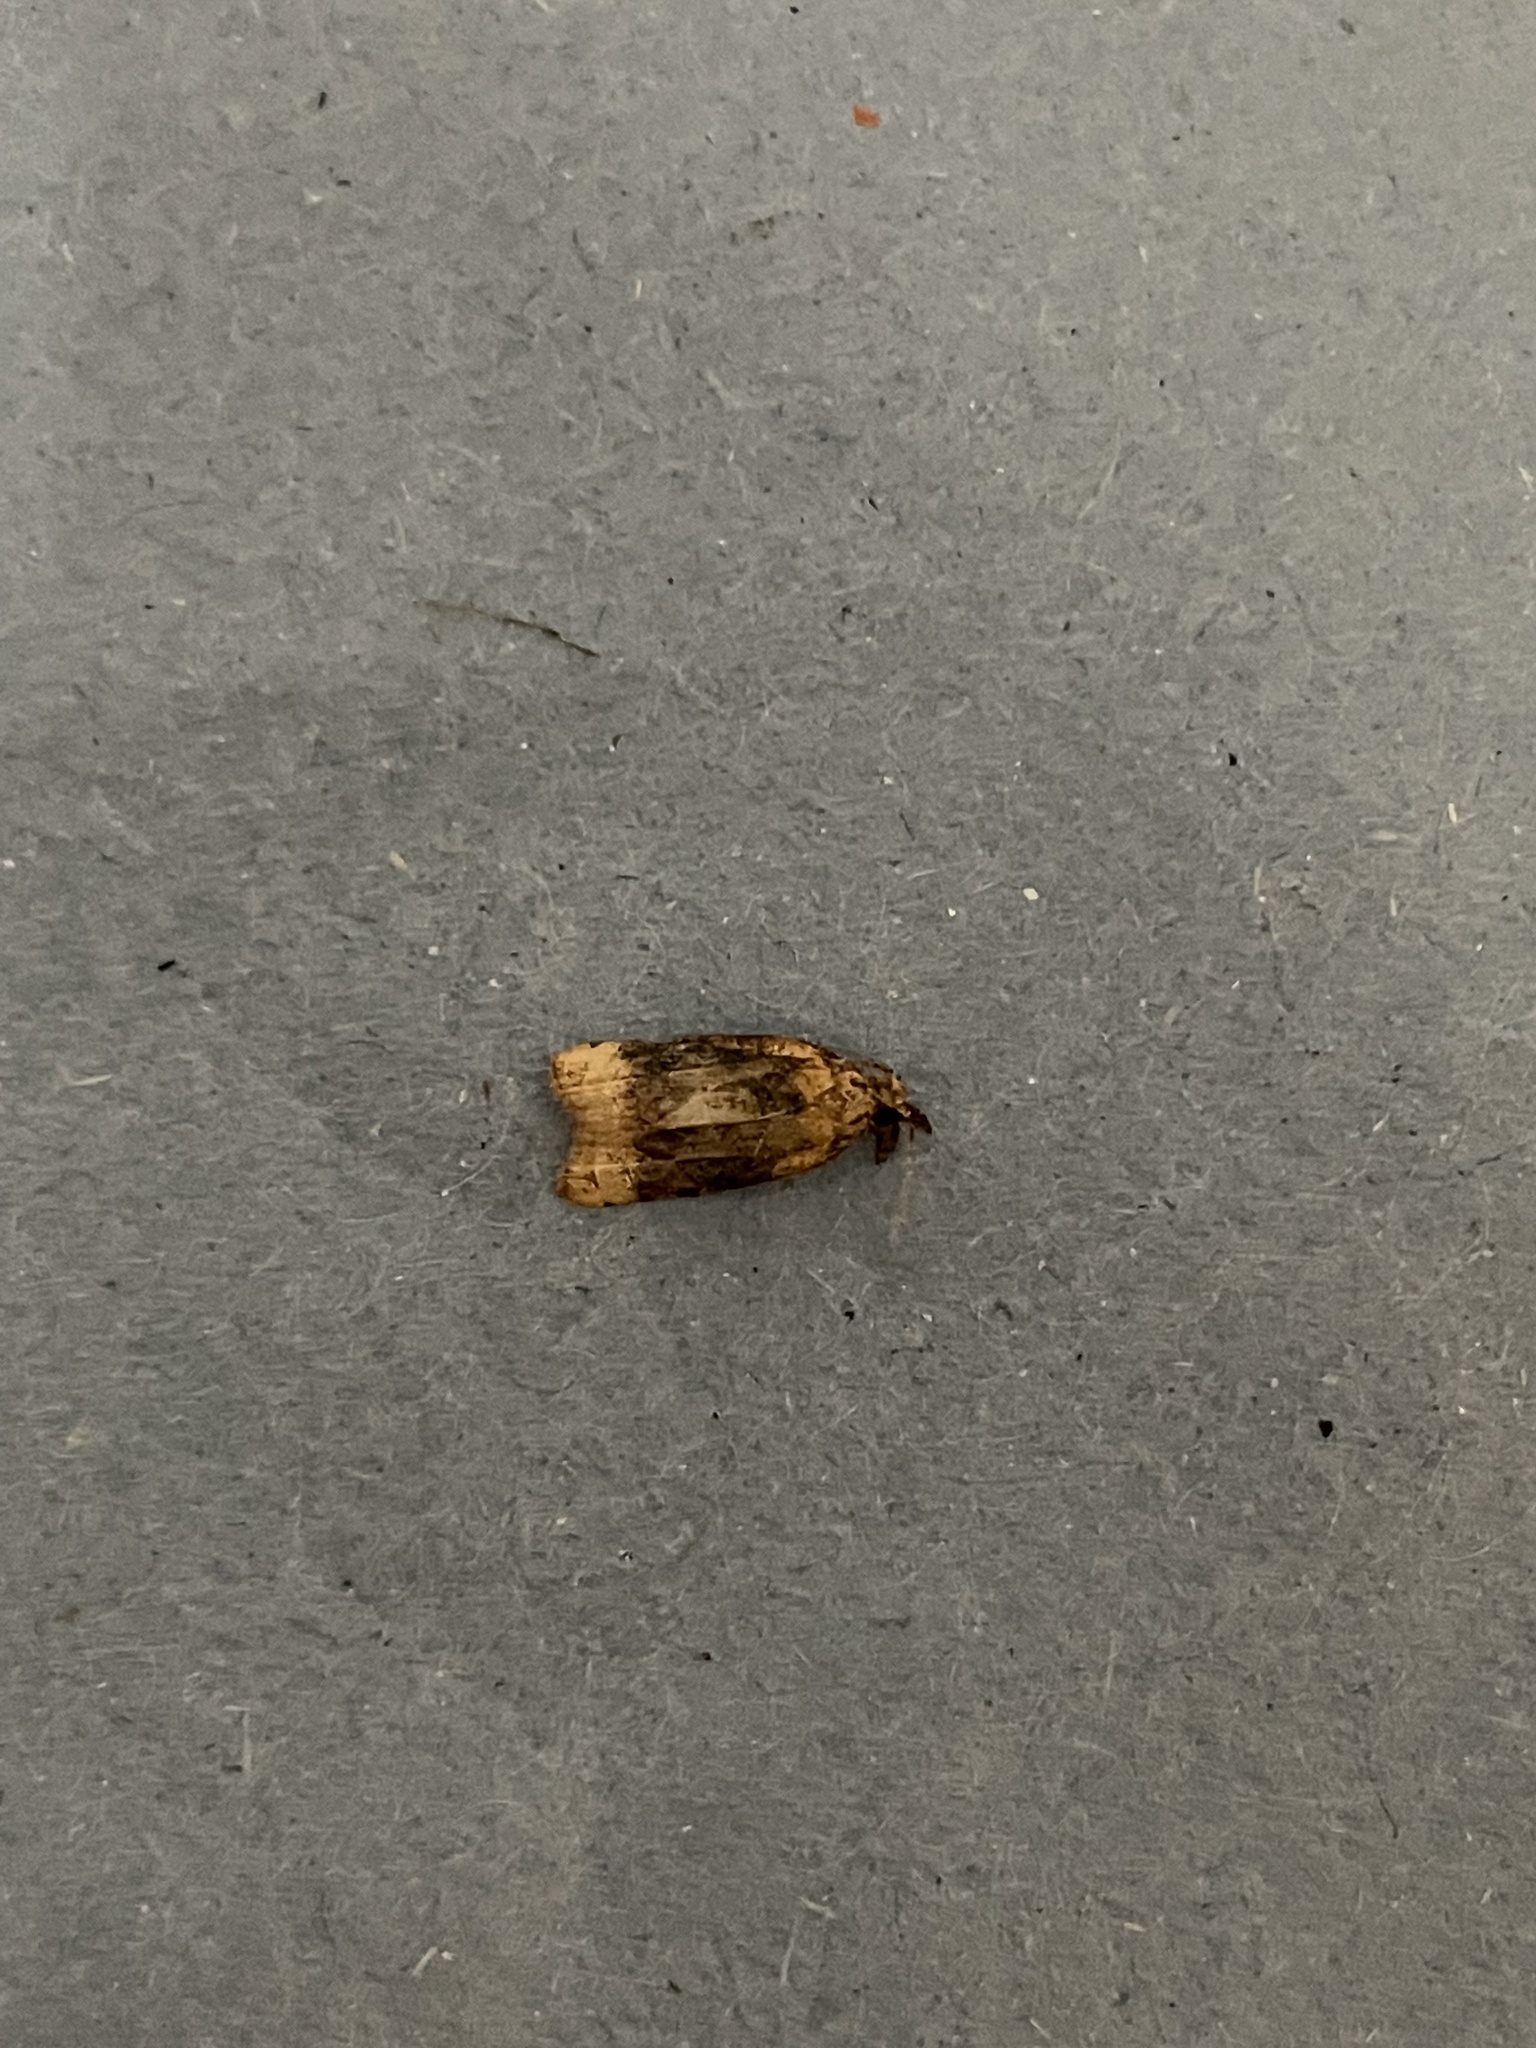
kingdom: Animalia
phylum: Arthropoda
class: Insecta
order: Lepidoptera
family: Tortricidae
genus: Platynota
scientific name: Platynota flavedana
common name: Black-shaded platynota moth
